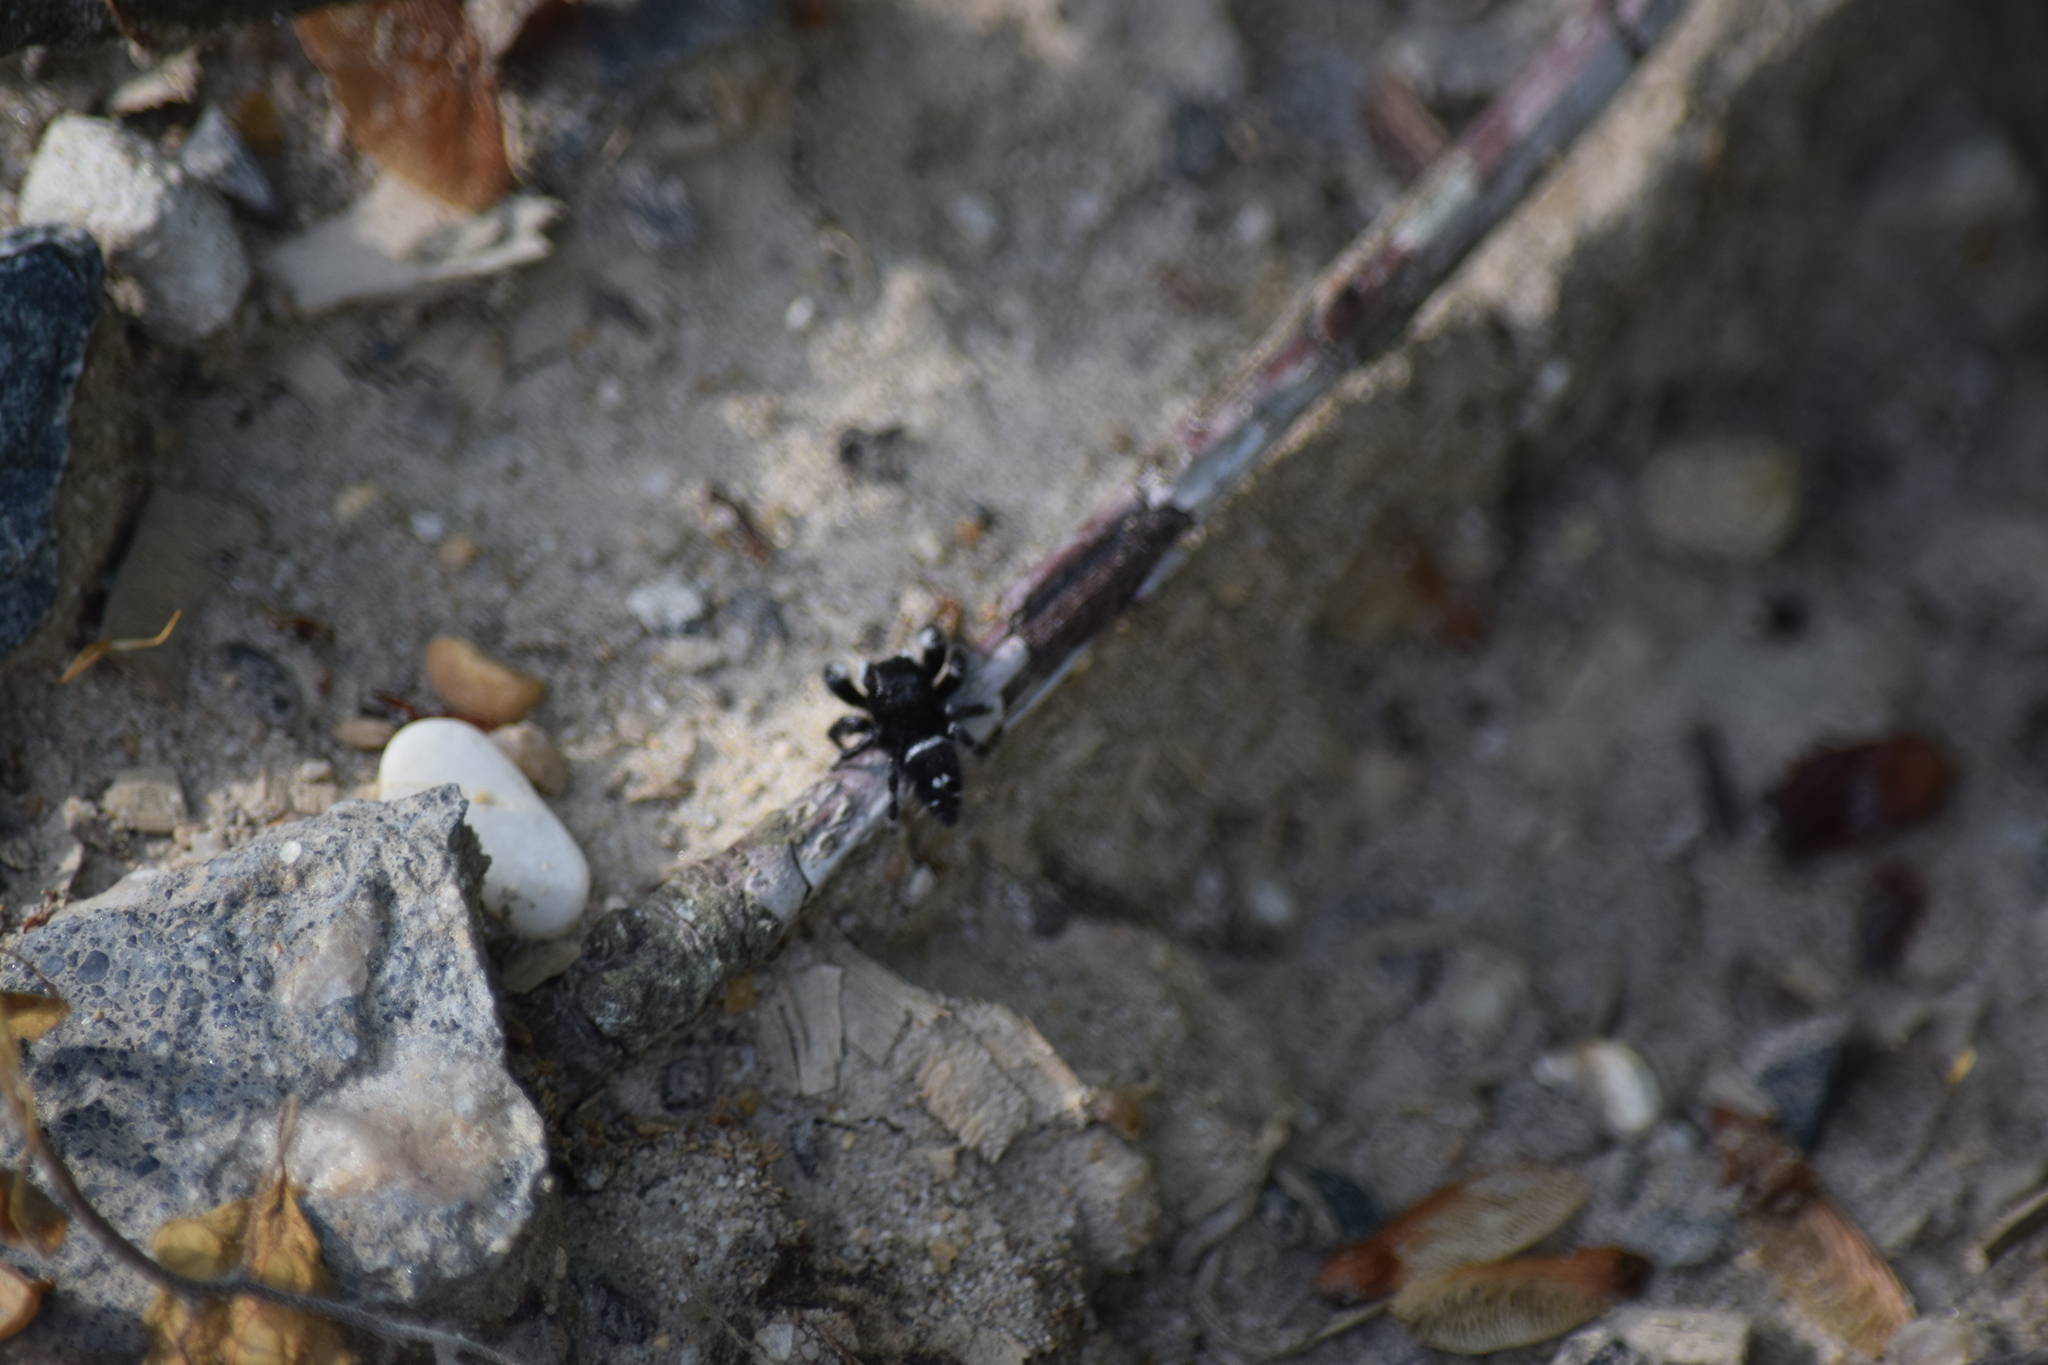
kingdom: Animalia
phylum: Arthropoda
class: Arachnida
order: Araneae
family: Salticidae
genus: Phidippus
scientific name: Phidippus audax
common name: Bold jumper
